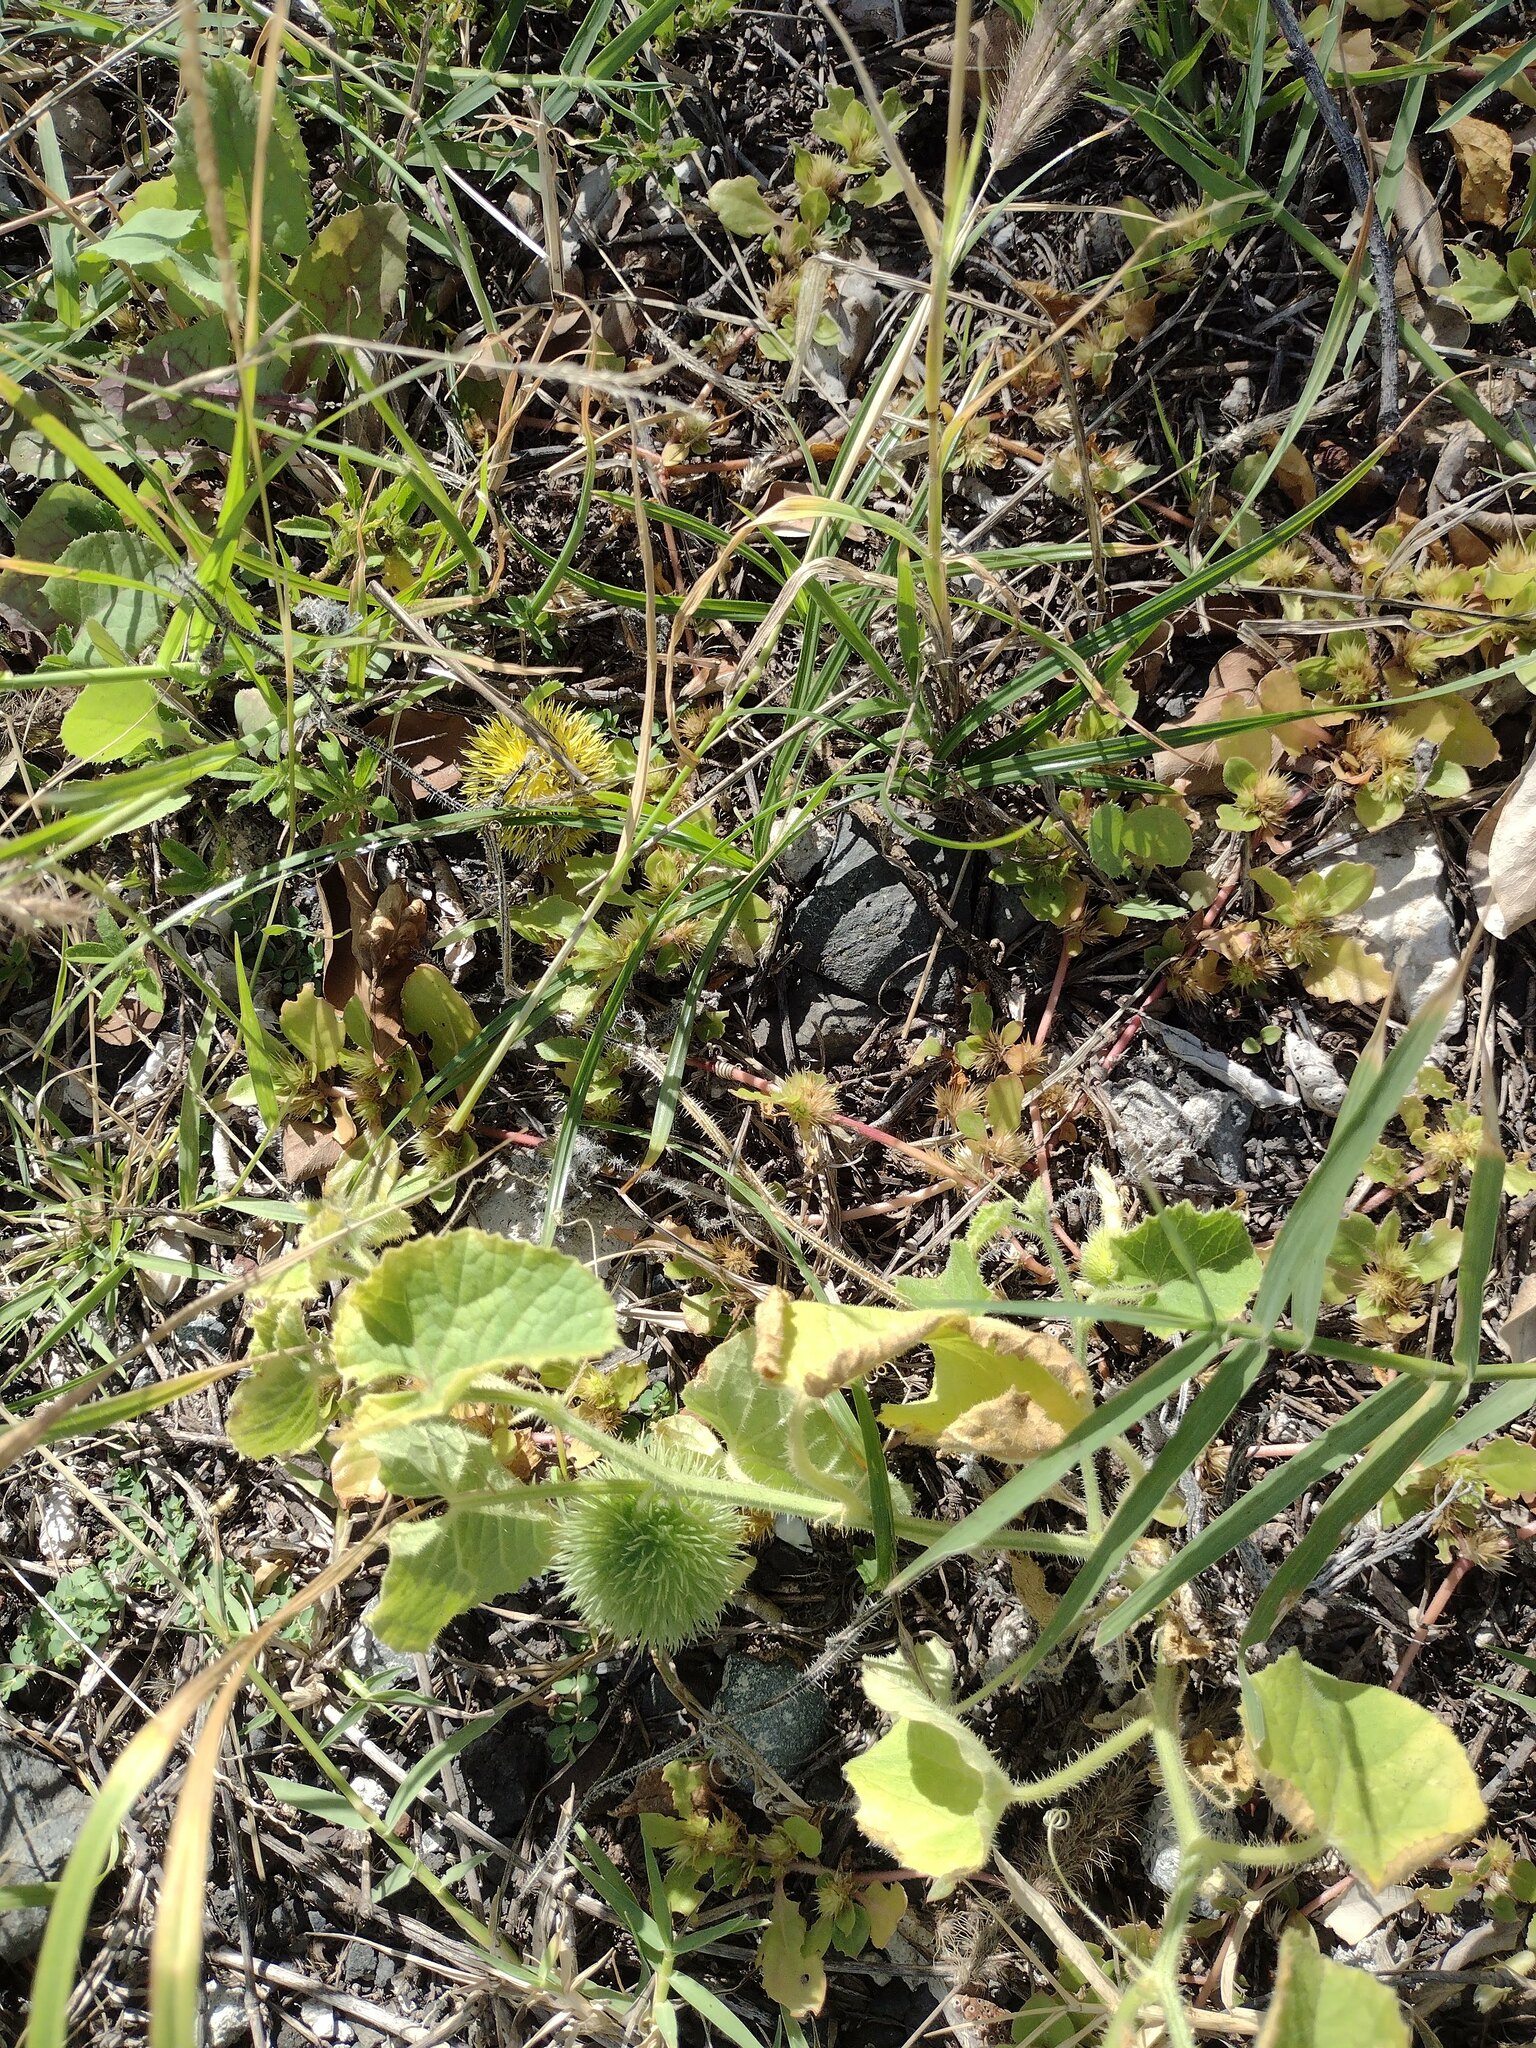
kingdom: Plantae
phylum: Tracheophyta
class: Magnoliopsida
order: Cucurbitales
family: Cucurbitaceae
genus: Cucumis
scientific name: Cucumis dipsaceus
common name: Hedgehog gourd
